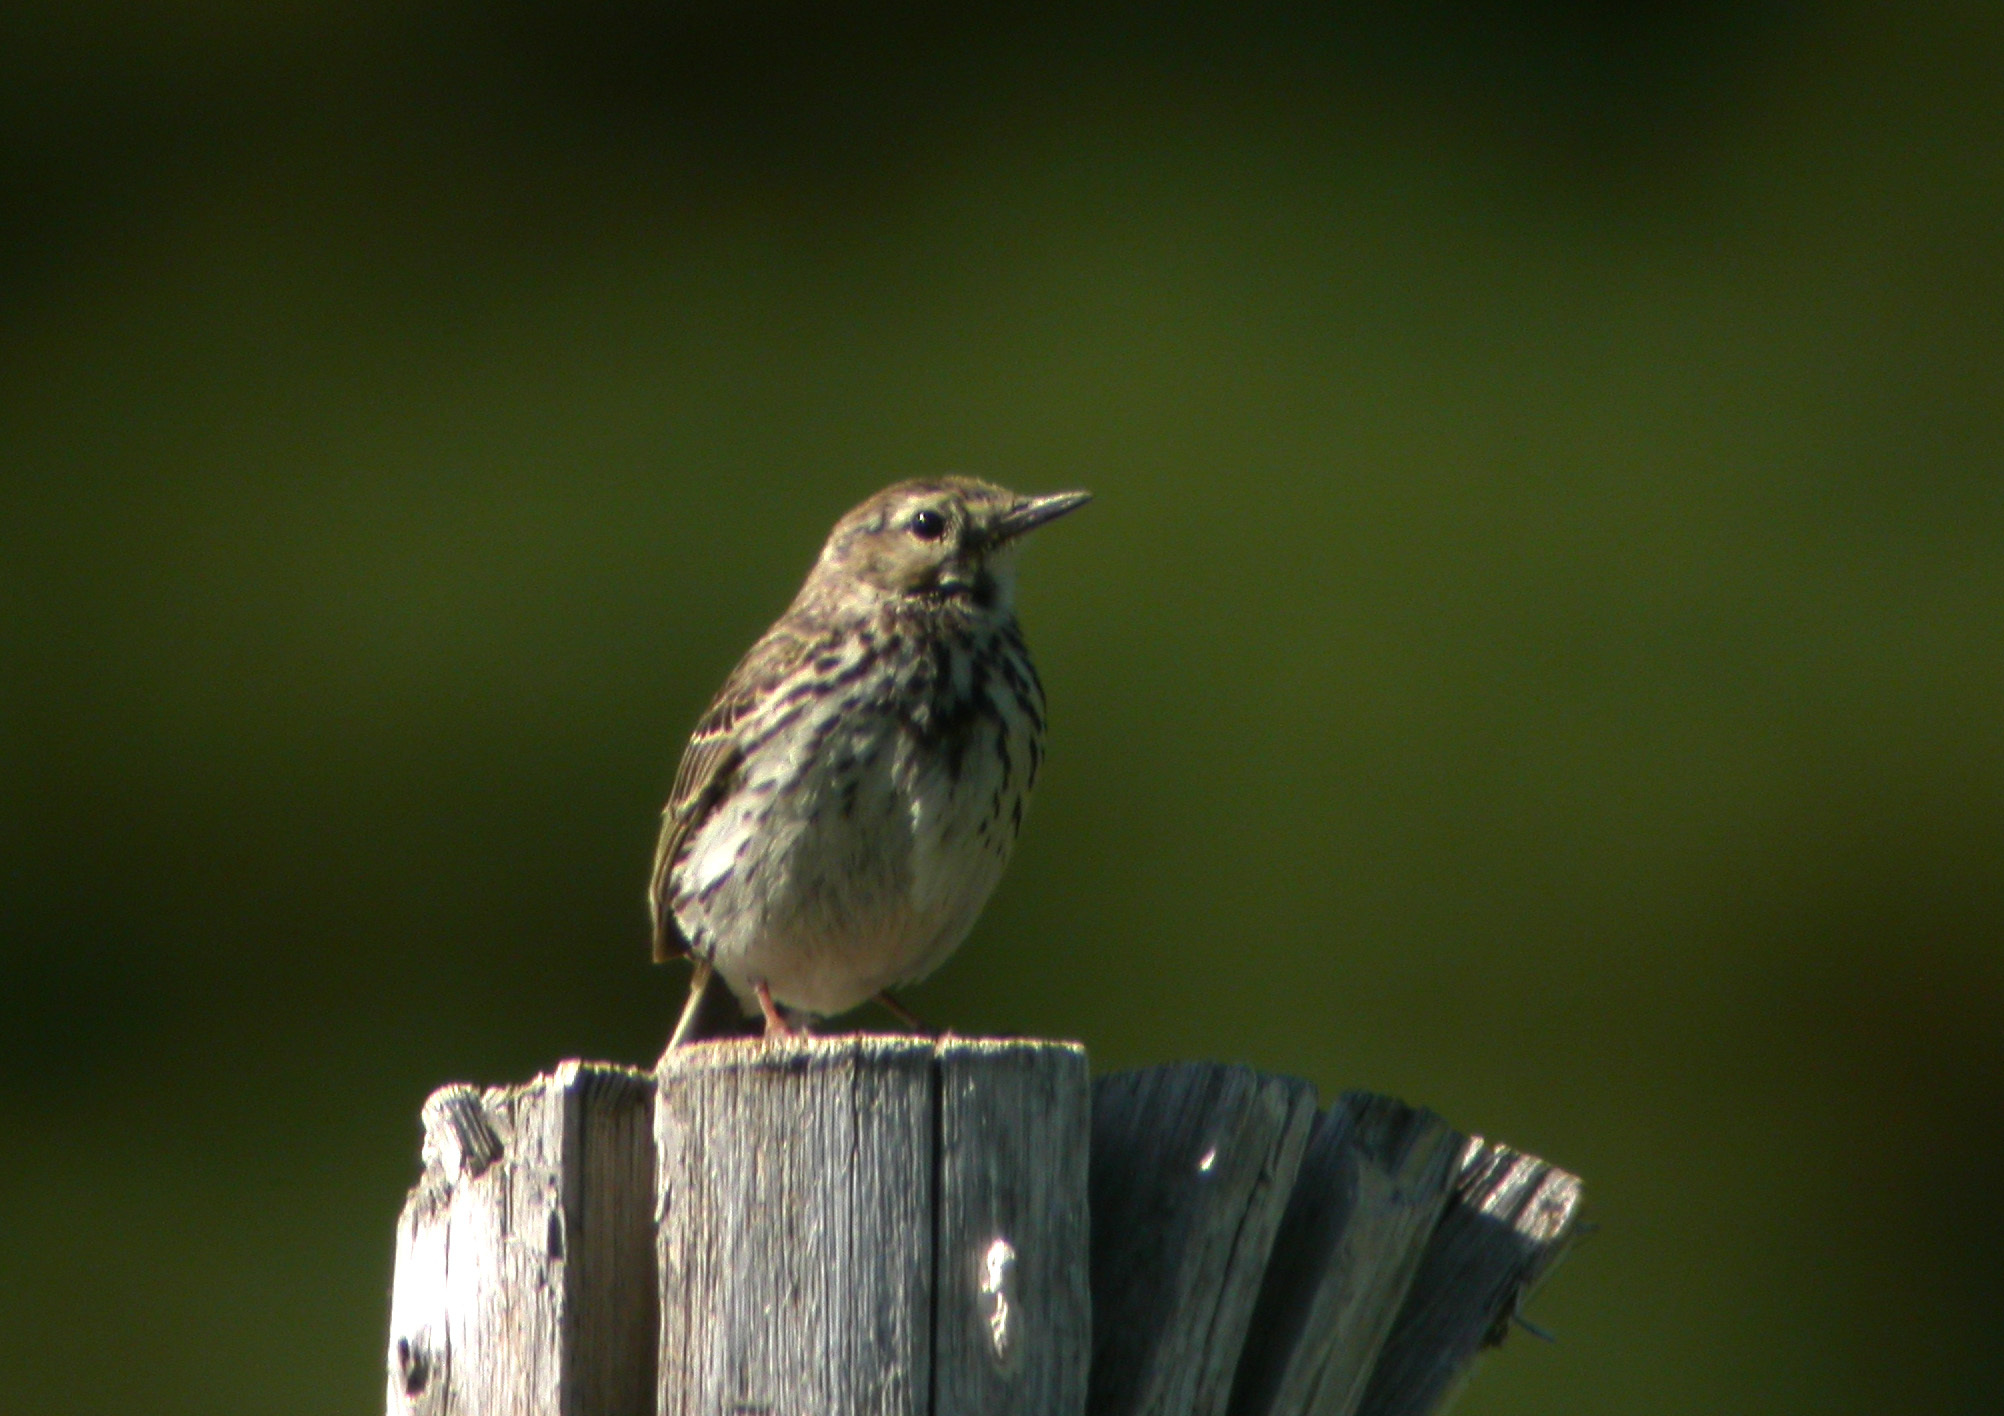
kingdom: Animalia
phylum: Chordata
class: Aves
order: Passeriformes
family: Motacillidae
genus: Anthus
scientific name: Anthus pratensis
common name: Meadow pipit
